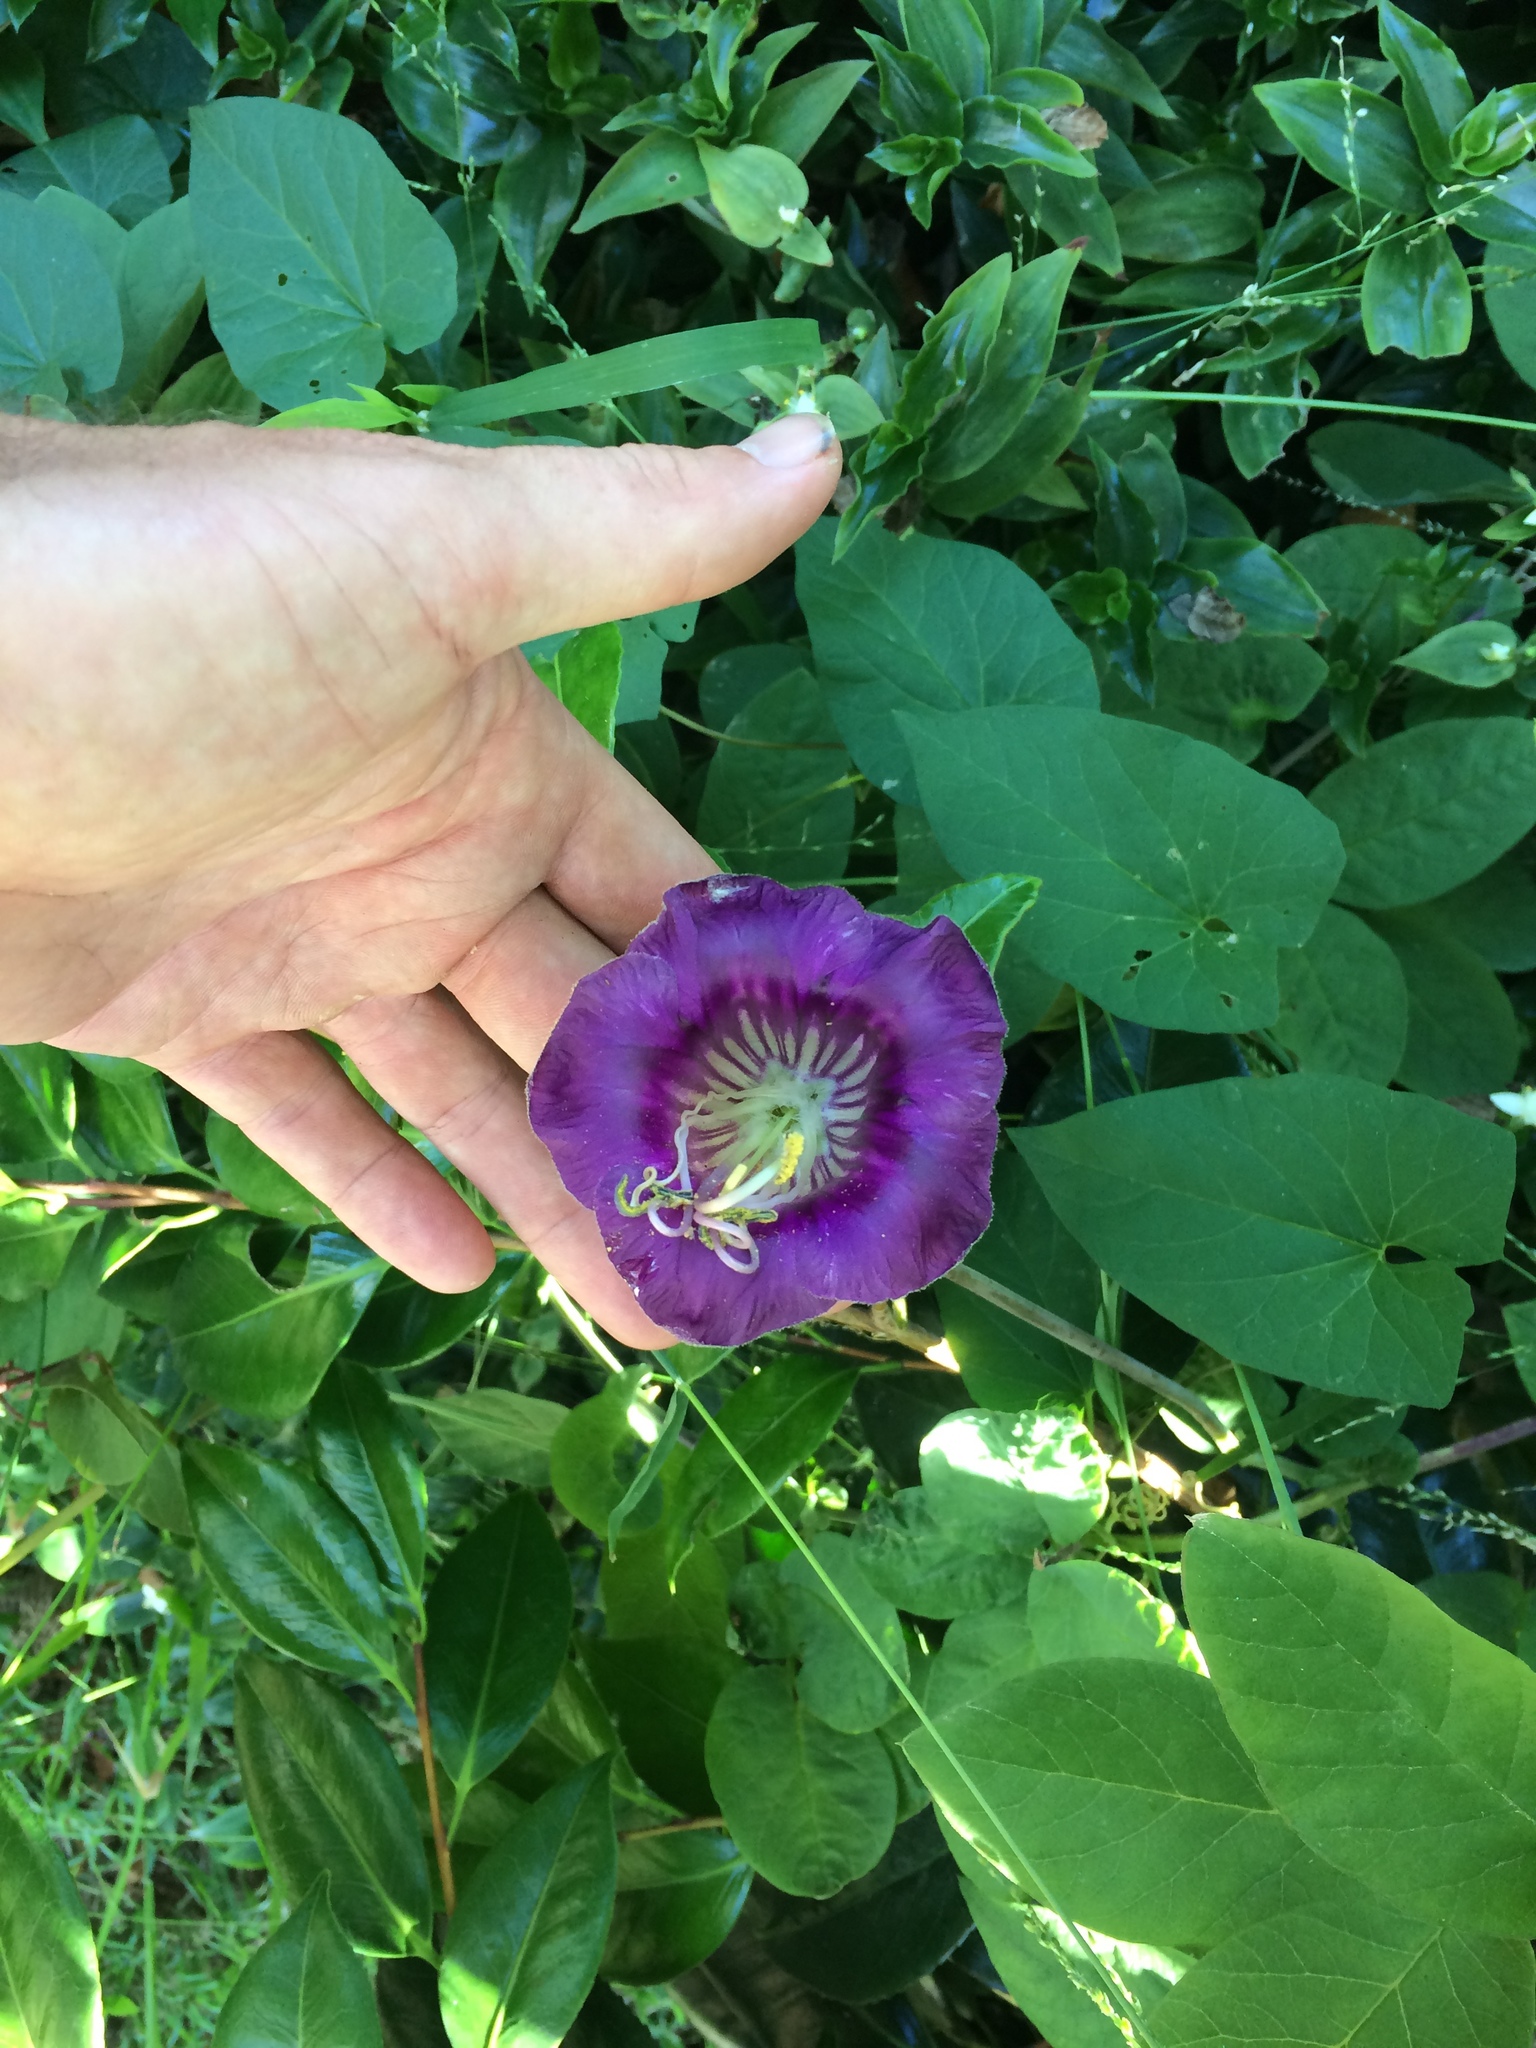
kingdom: Plantae
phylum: Tracheophyta
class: Magnoliopsida
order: Ericales
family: Polemoniaceae
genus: Cobaea
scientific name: Cobaea scandens
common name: Cup-and-saucer-vine
